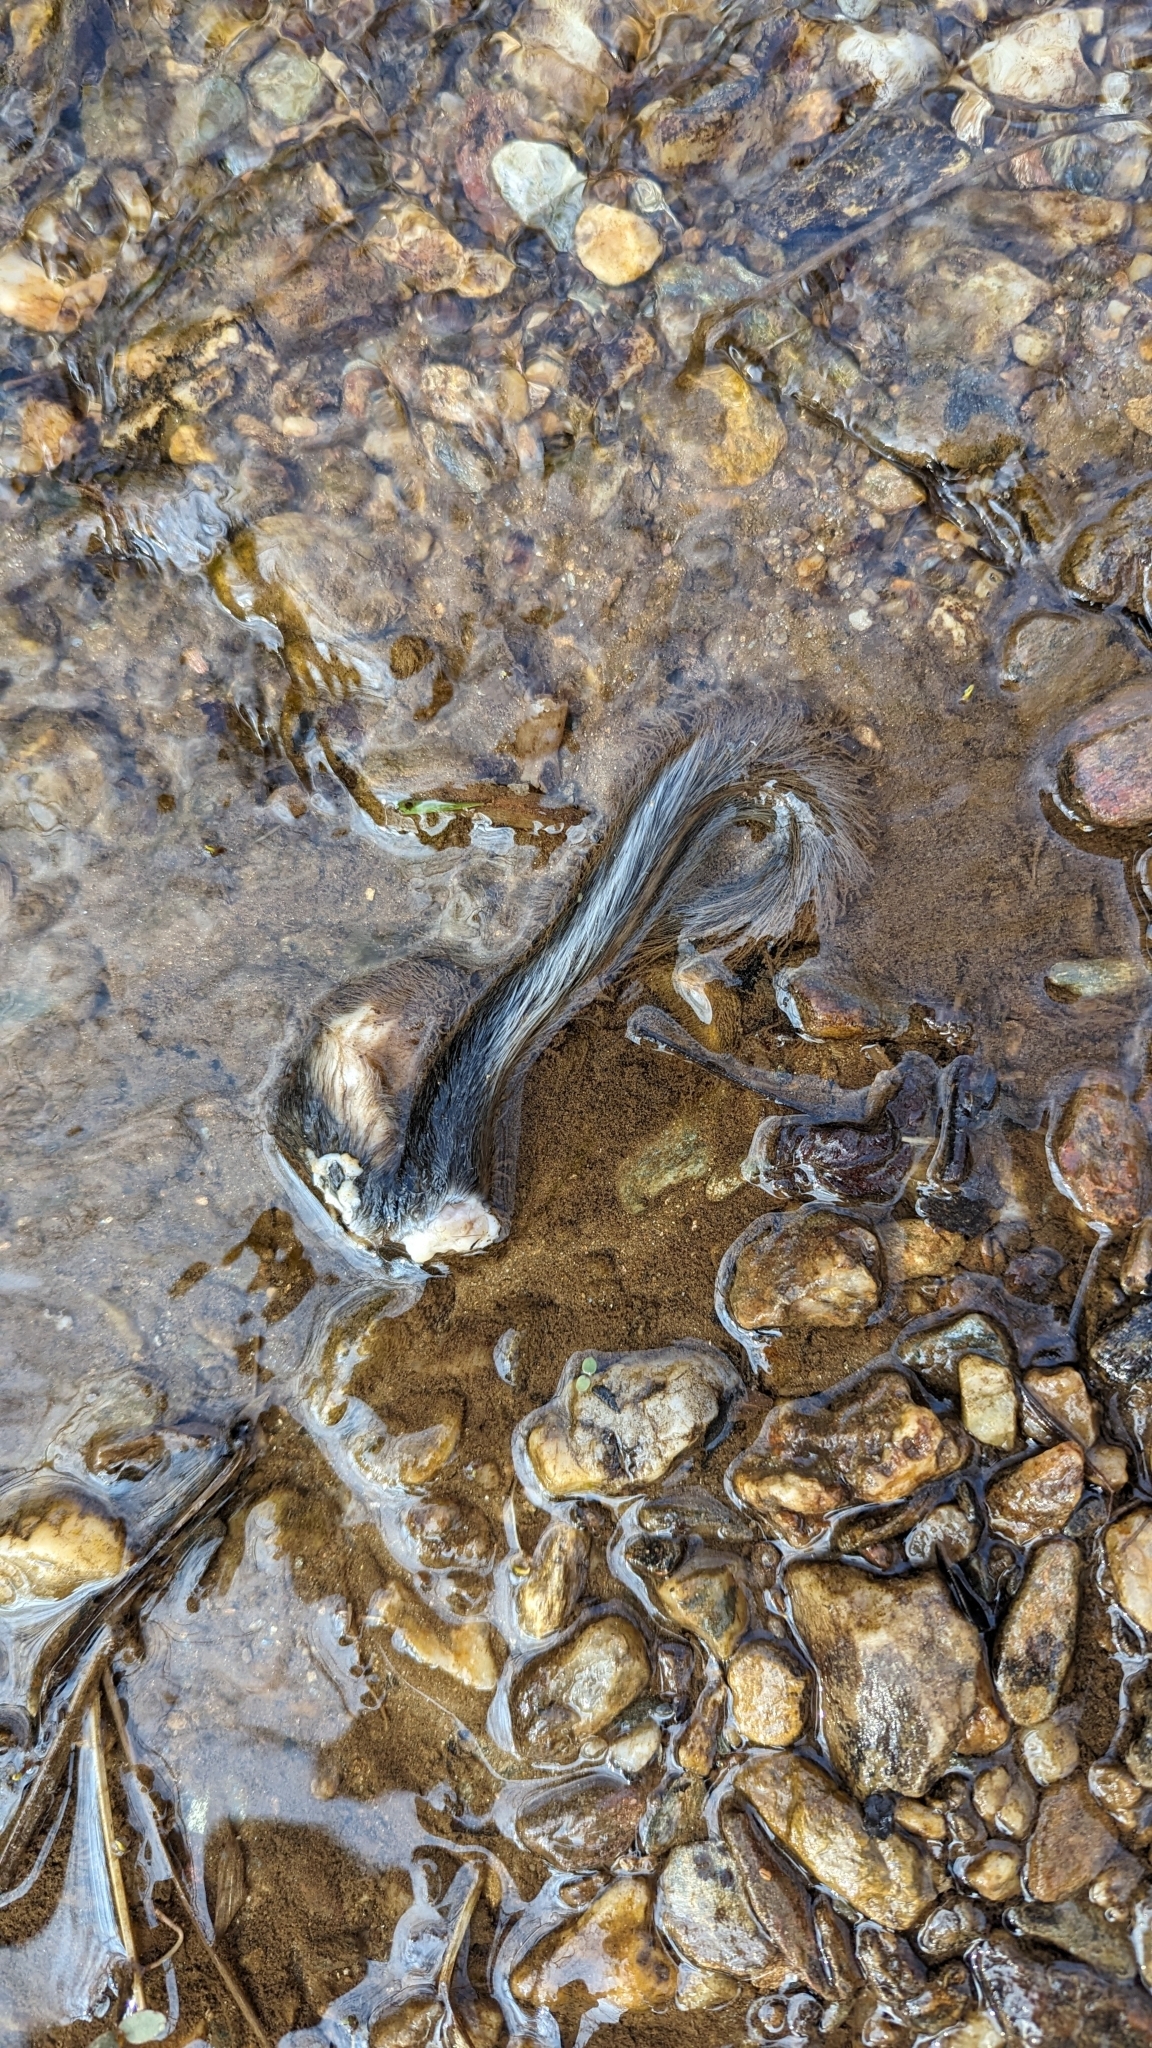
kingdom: Animalia
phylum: Chordata
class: Mammalia
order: Rodentia
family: Sciuridae
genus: Sciurus
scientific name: Sciurus carolinensis
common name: Eastern gray squirrel
